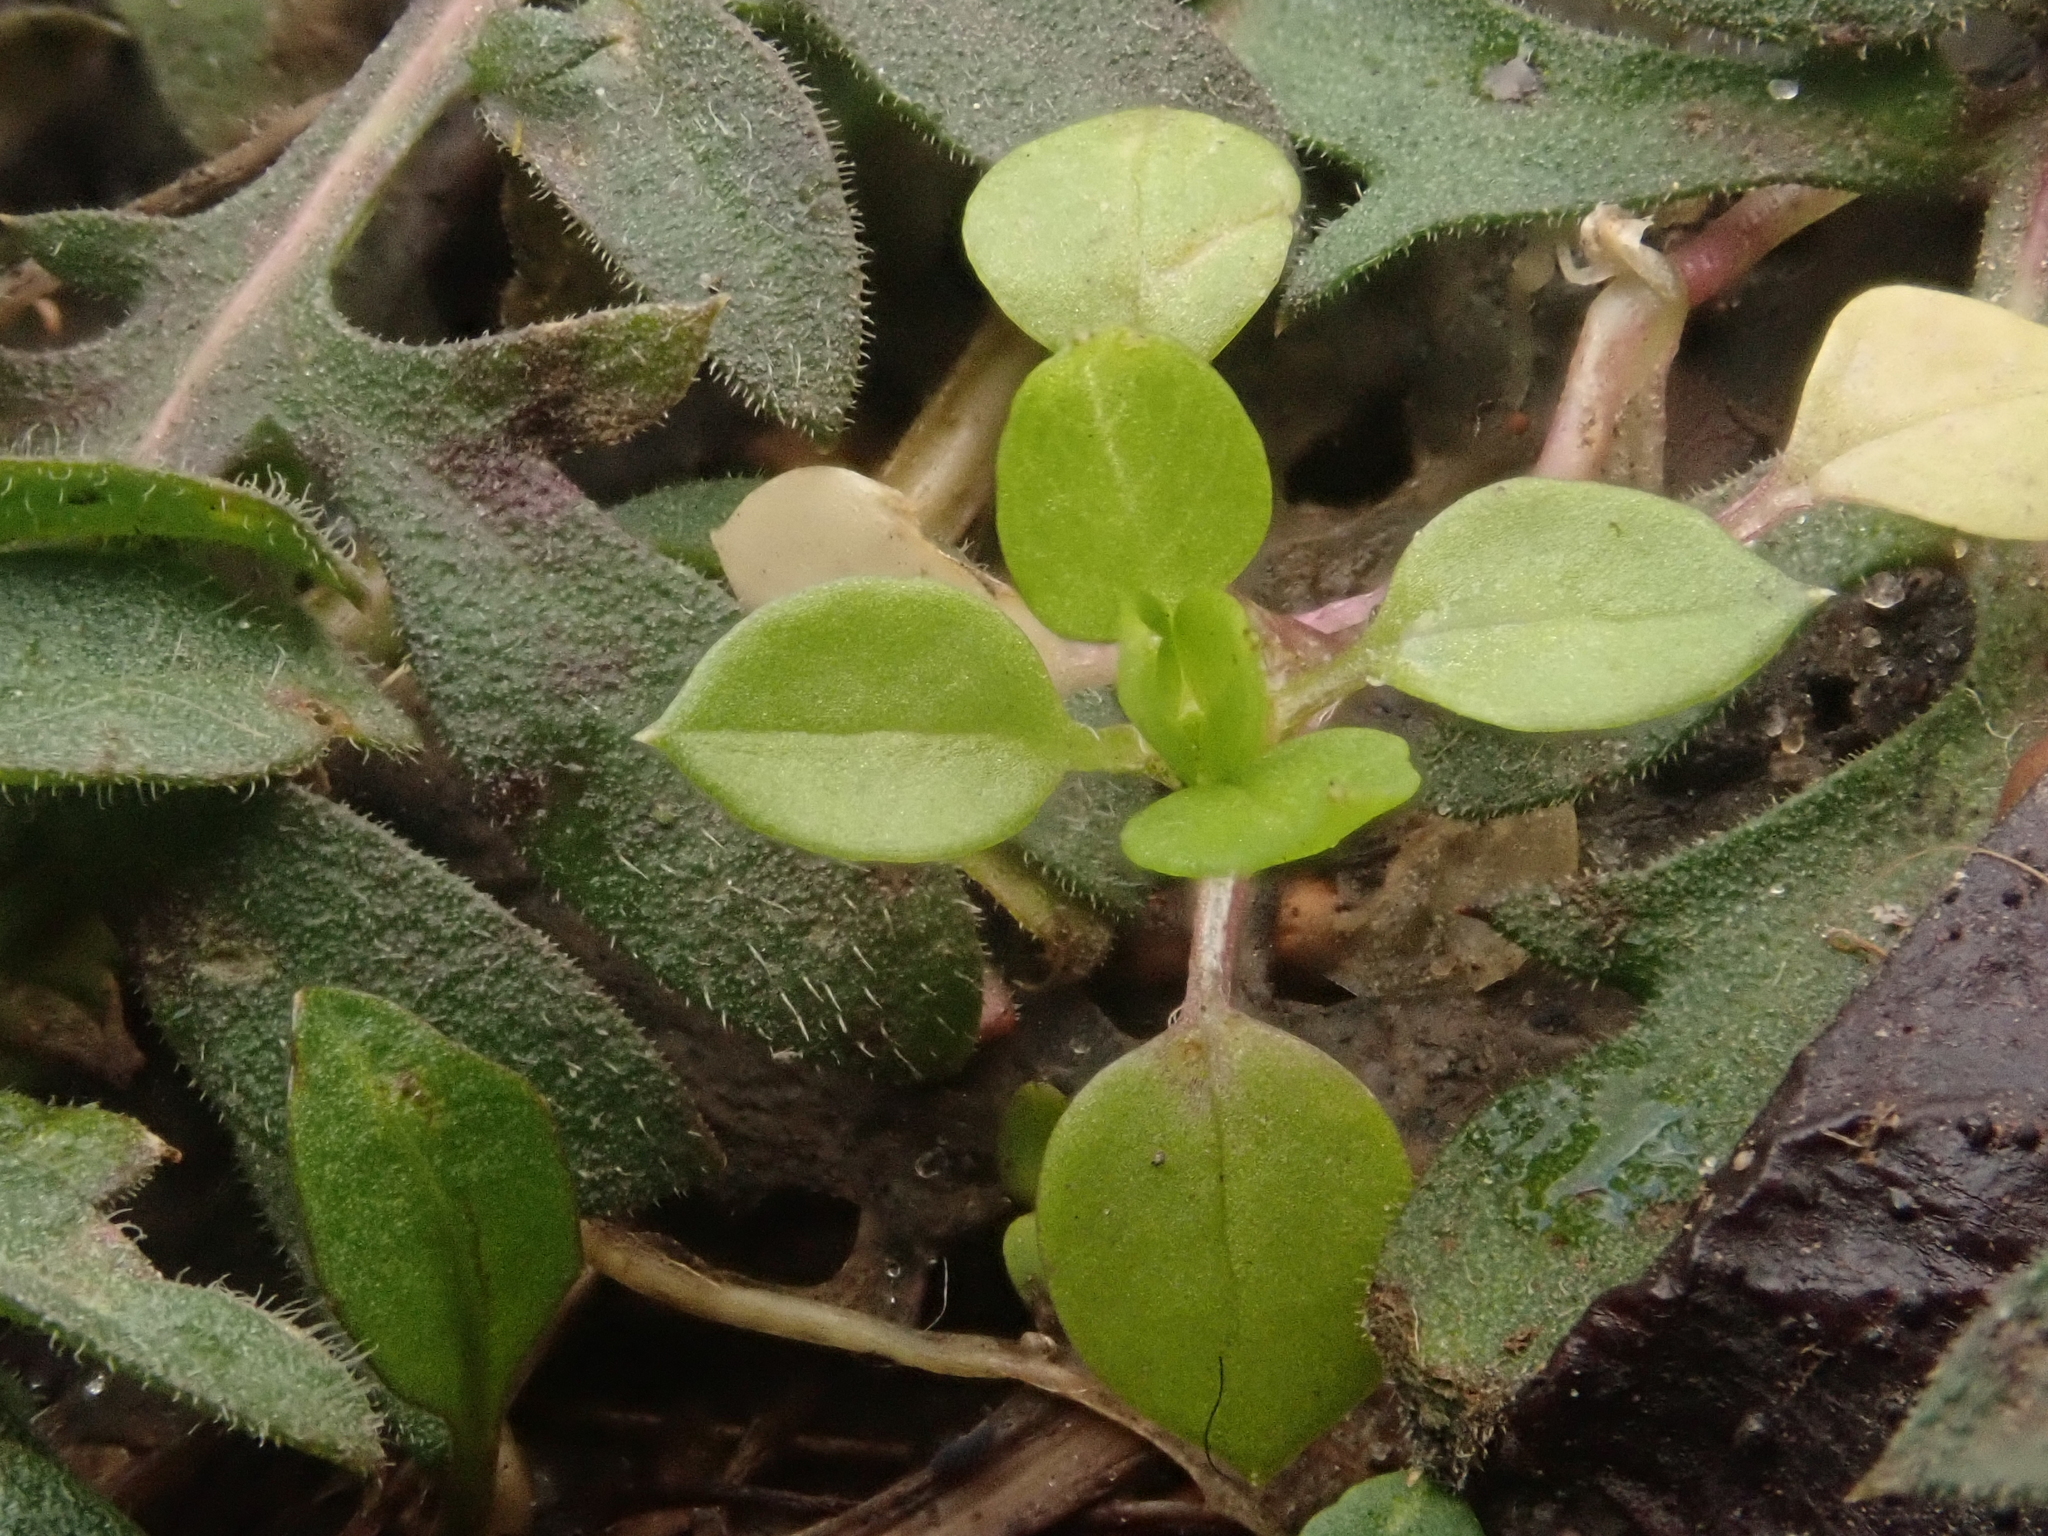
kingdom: Plantae
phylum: Tracheophyta
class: Magnoliopsida
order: Caryophyllales
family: Caryophyllaceae
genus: Stellaria
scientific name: Stellaria media
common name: Common chickweed
